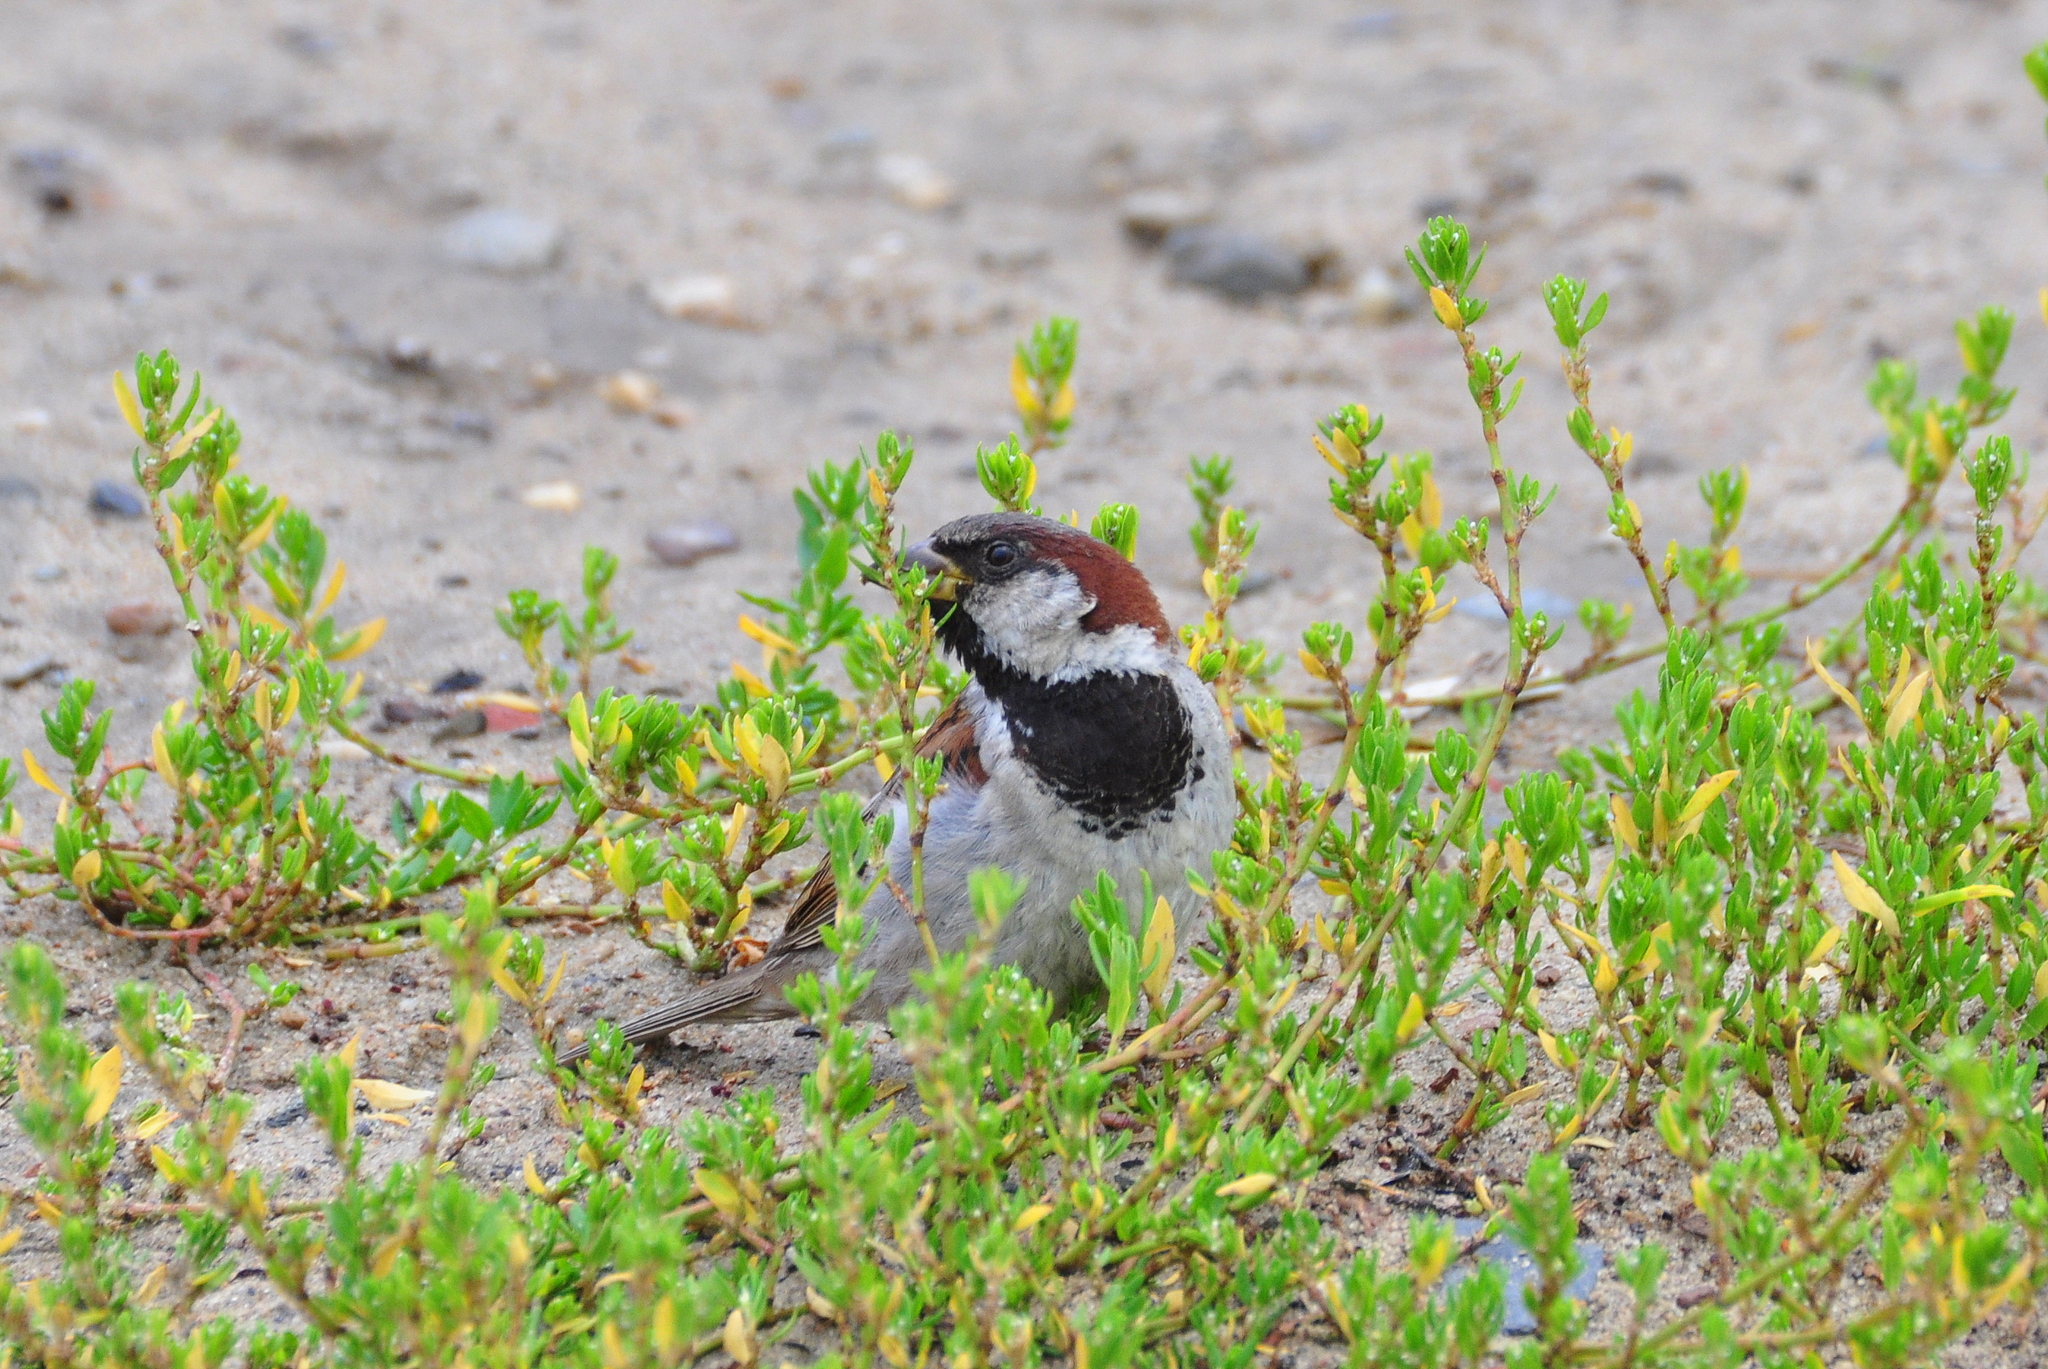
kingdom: Animalia
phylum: Chordata
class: Aves
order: Passeriformes
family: Passeridae
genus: Passer
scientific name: Passer domesticus
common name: House sparrow
